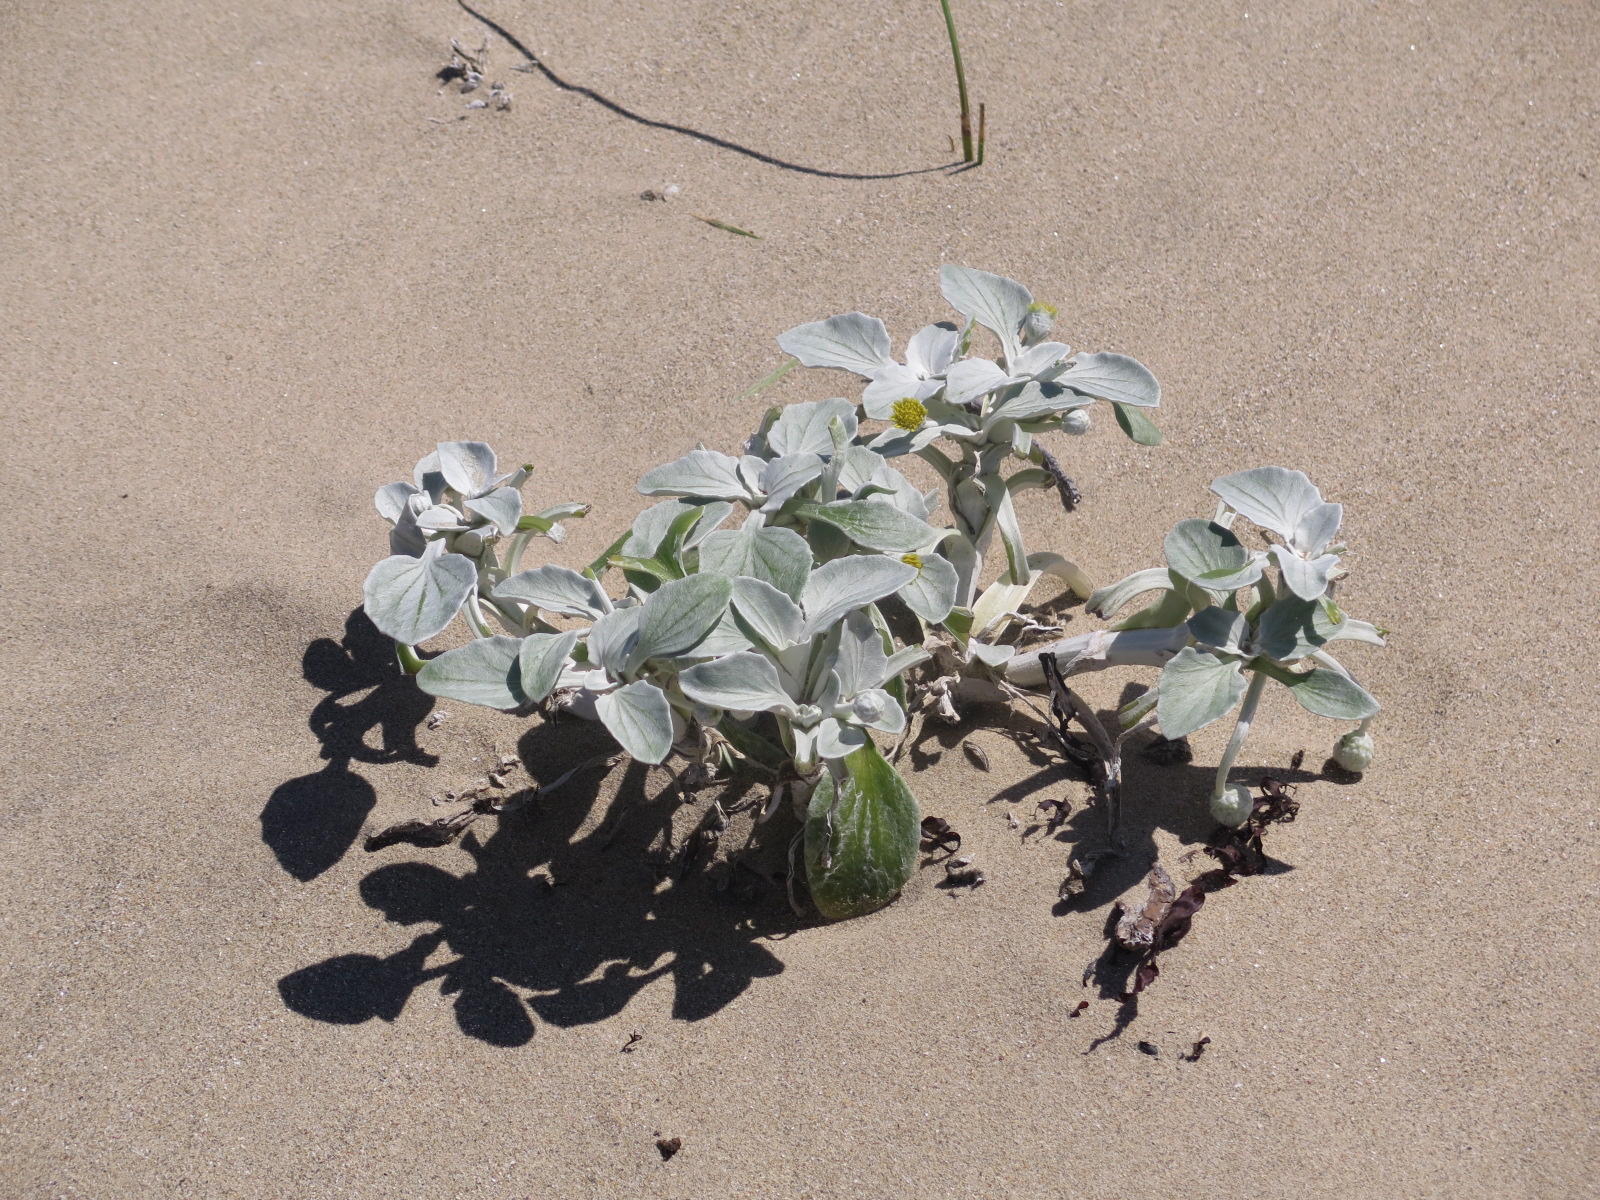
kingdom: Plantae
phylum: Tracheophyta
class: Magnoliopsida
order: Asterales
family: Asteraceae
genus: Arctotheca
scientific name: Arctotheca populifolia
